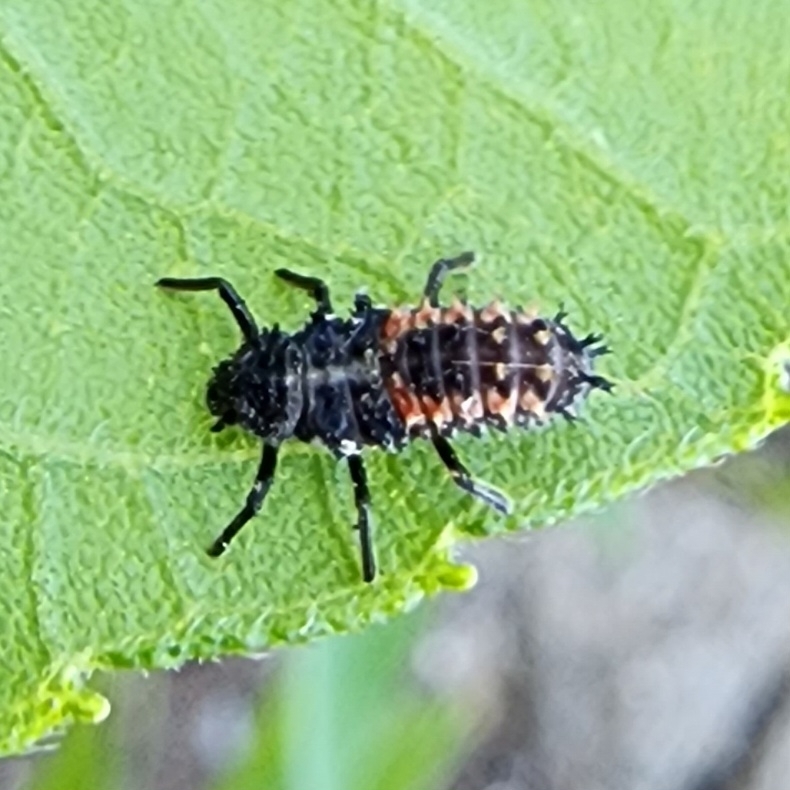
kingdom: Animalia
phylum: Arthropoda
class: Insecta
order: Coleoptera
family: Coccinellidae
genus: Harmonia
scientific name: Harmonia axyridis
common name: Harlequin ladybird
